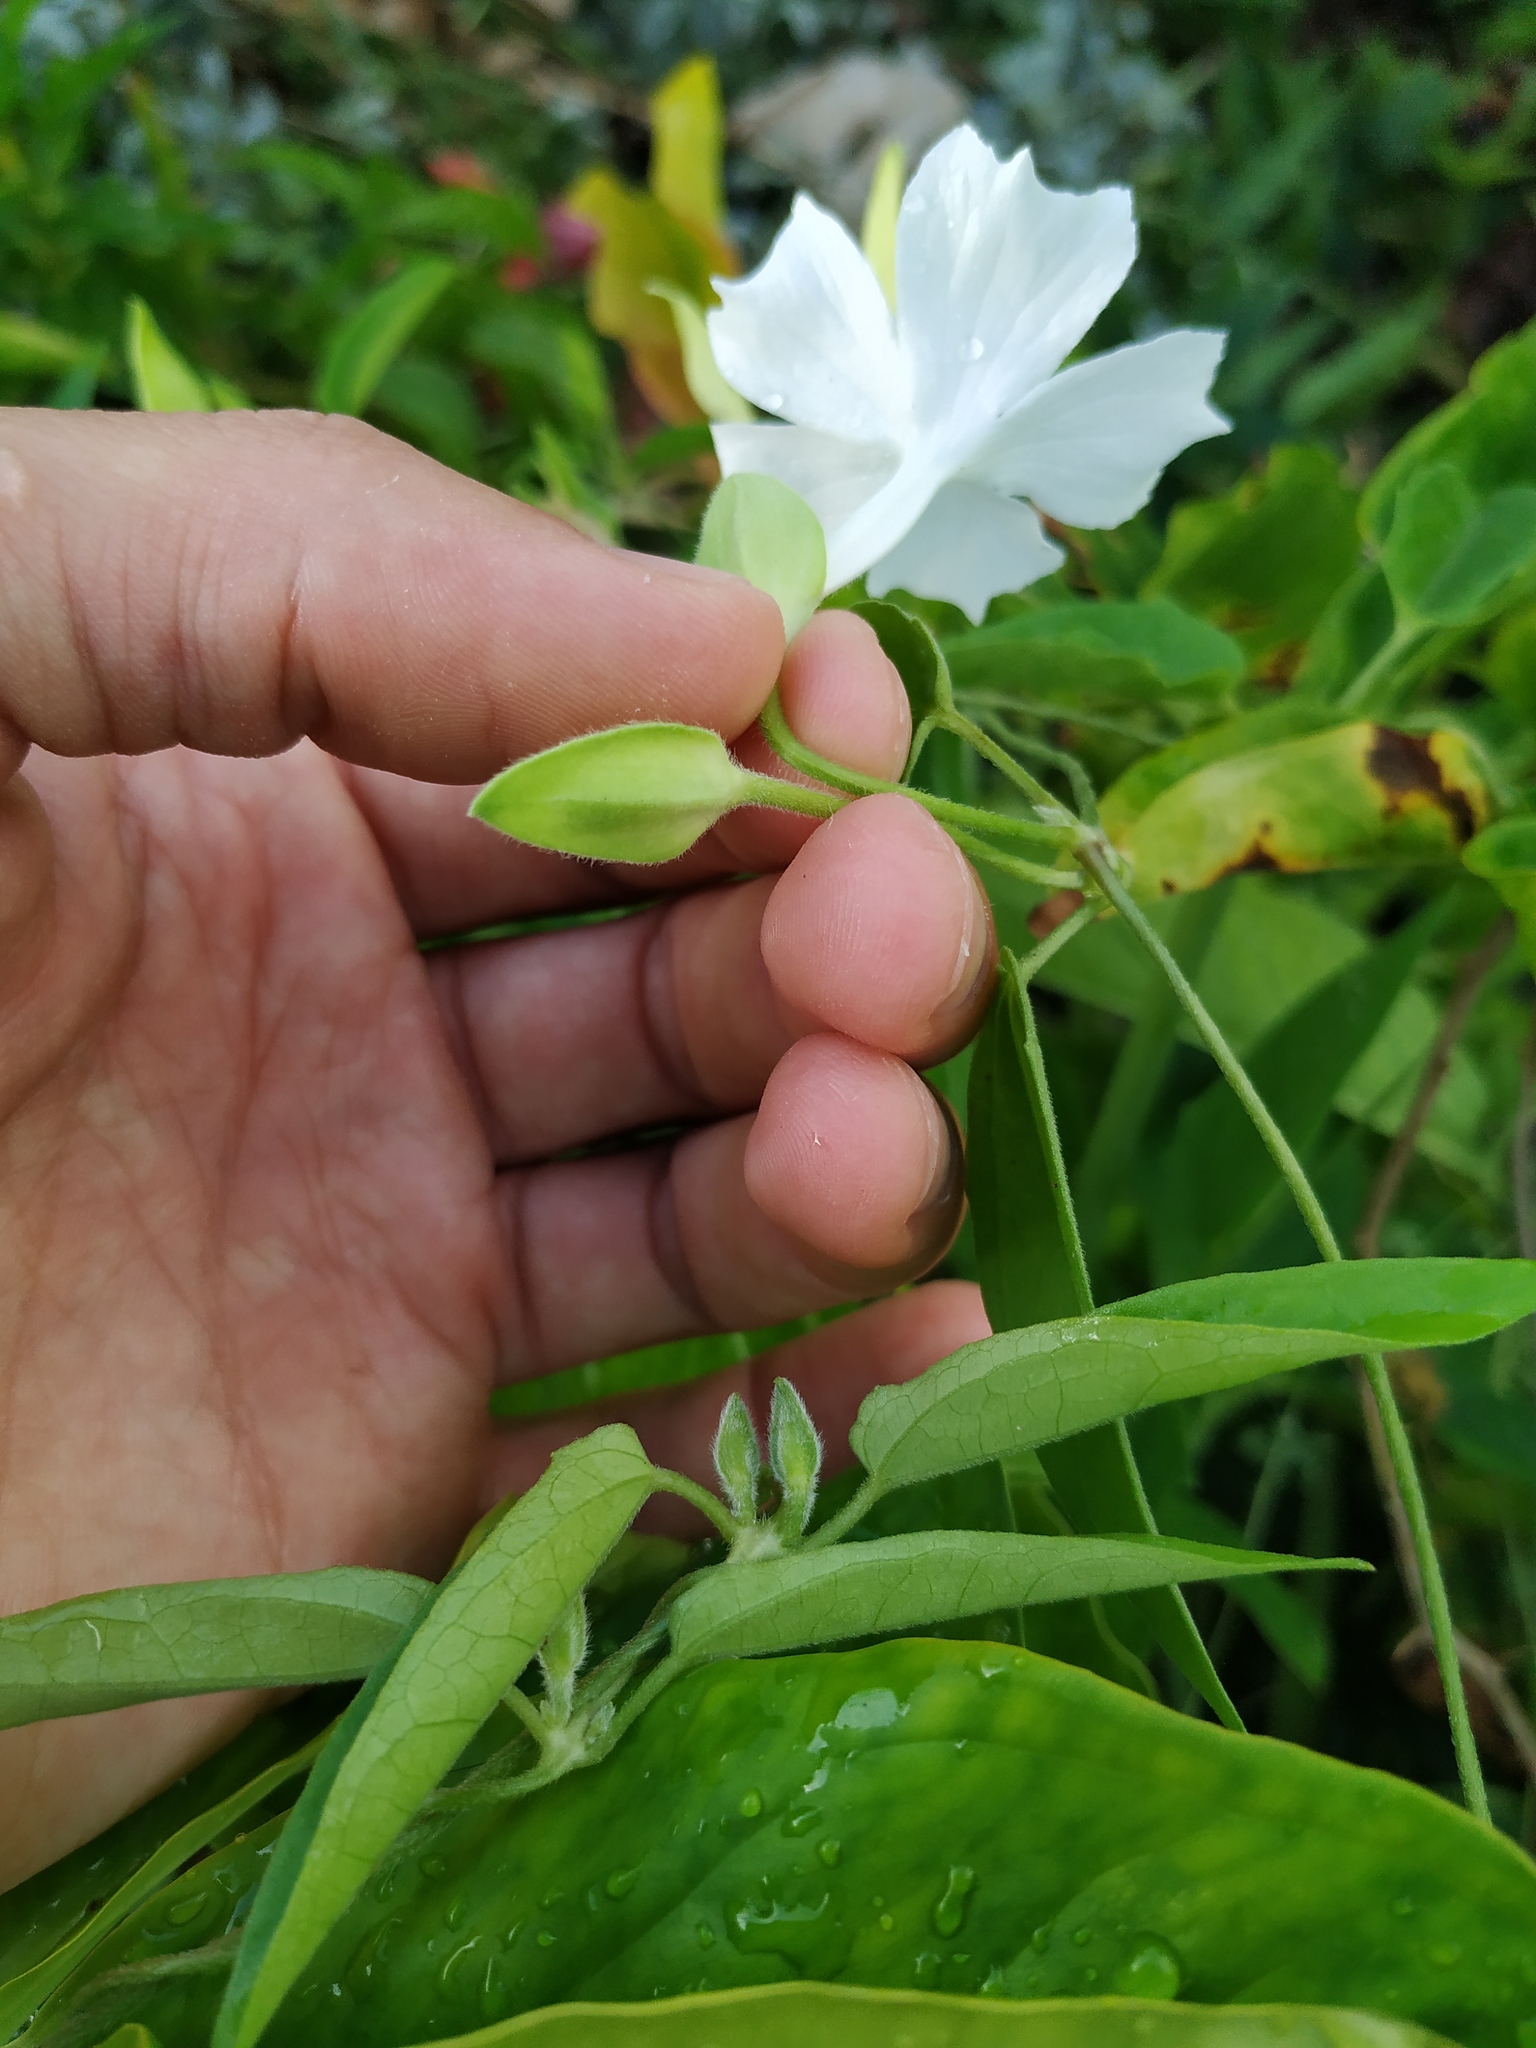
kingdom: Plantae
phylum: Tracheophyta
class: Magnoliopsida
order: Lamiales
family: Acanthaceae
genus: Thunbergia
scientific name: Thunbergia fragrans
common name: Whitelady
